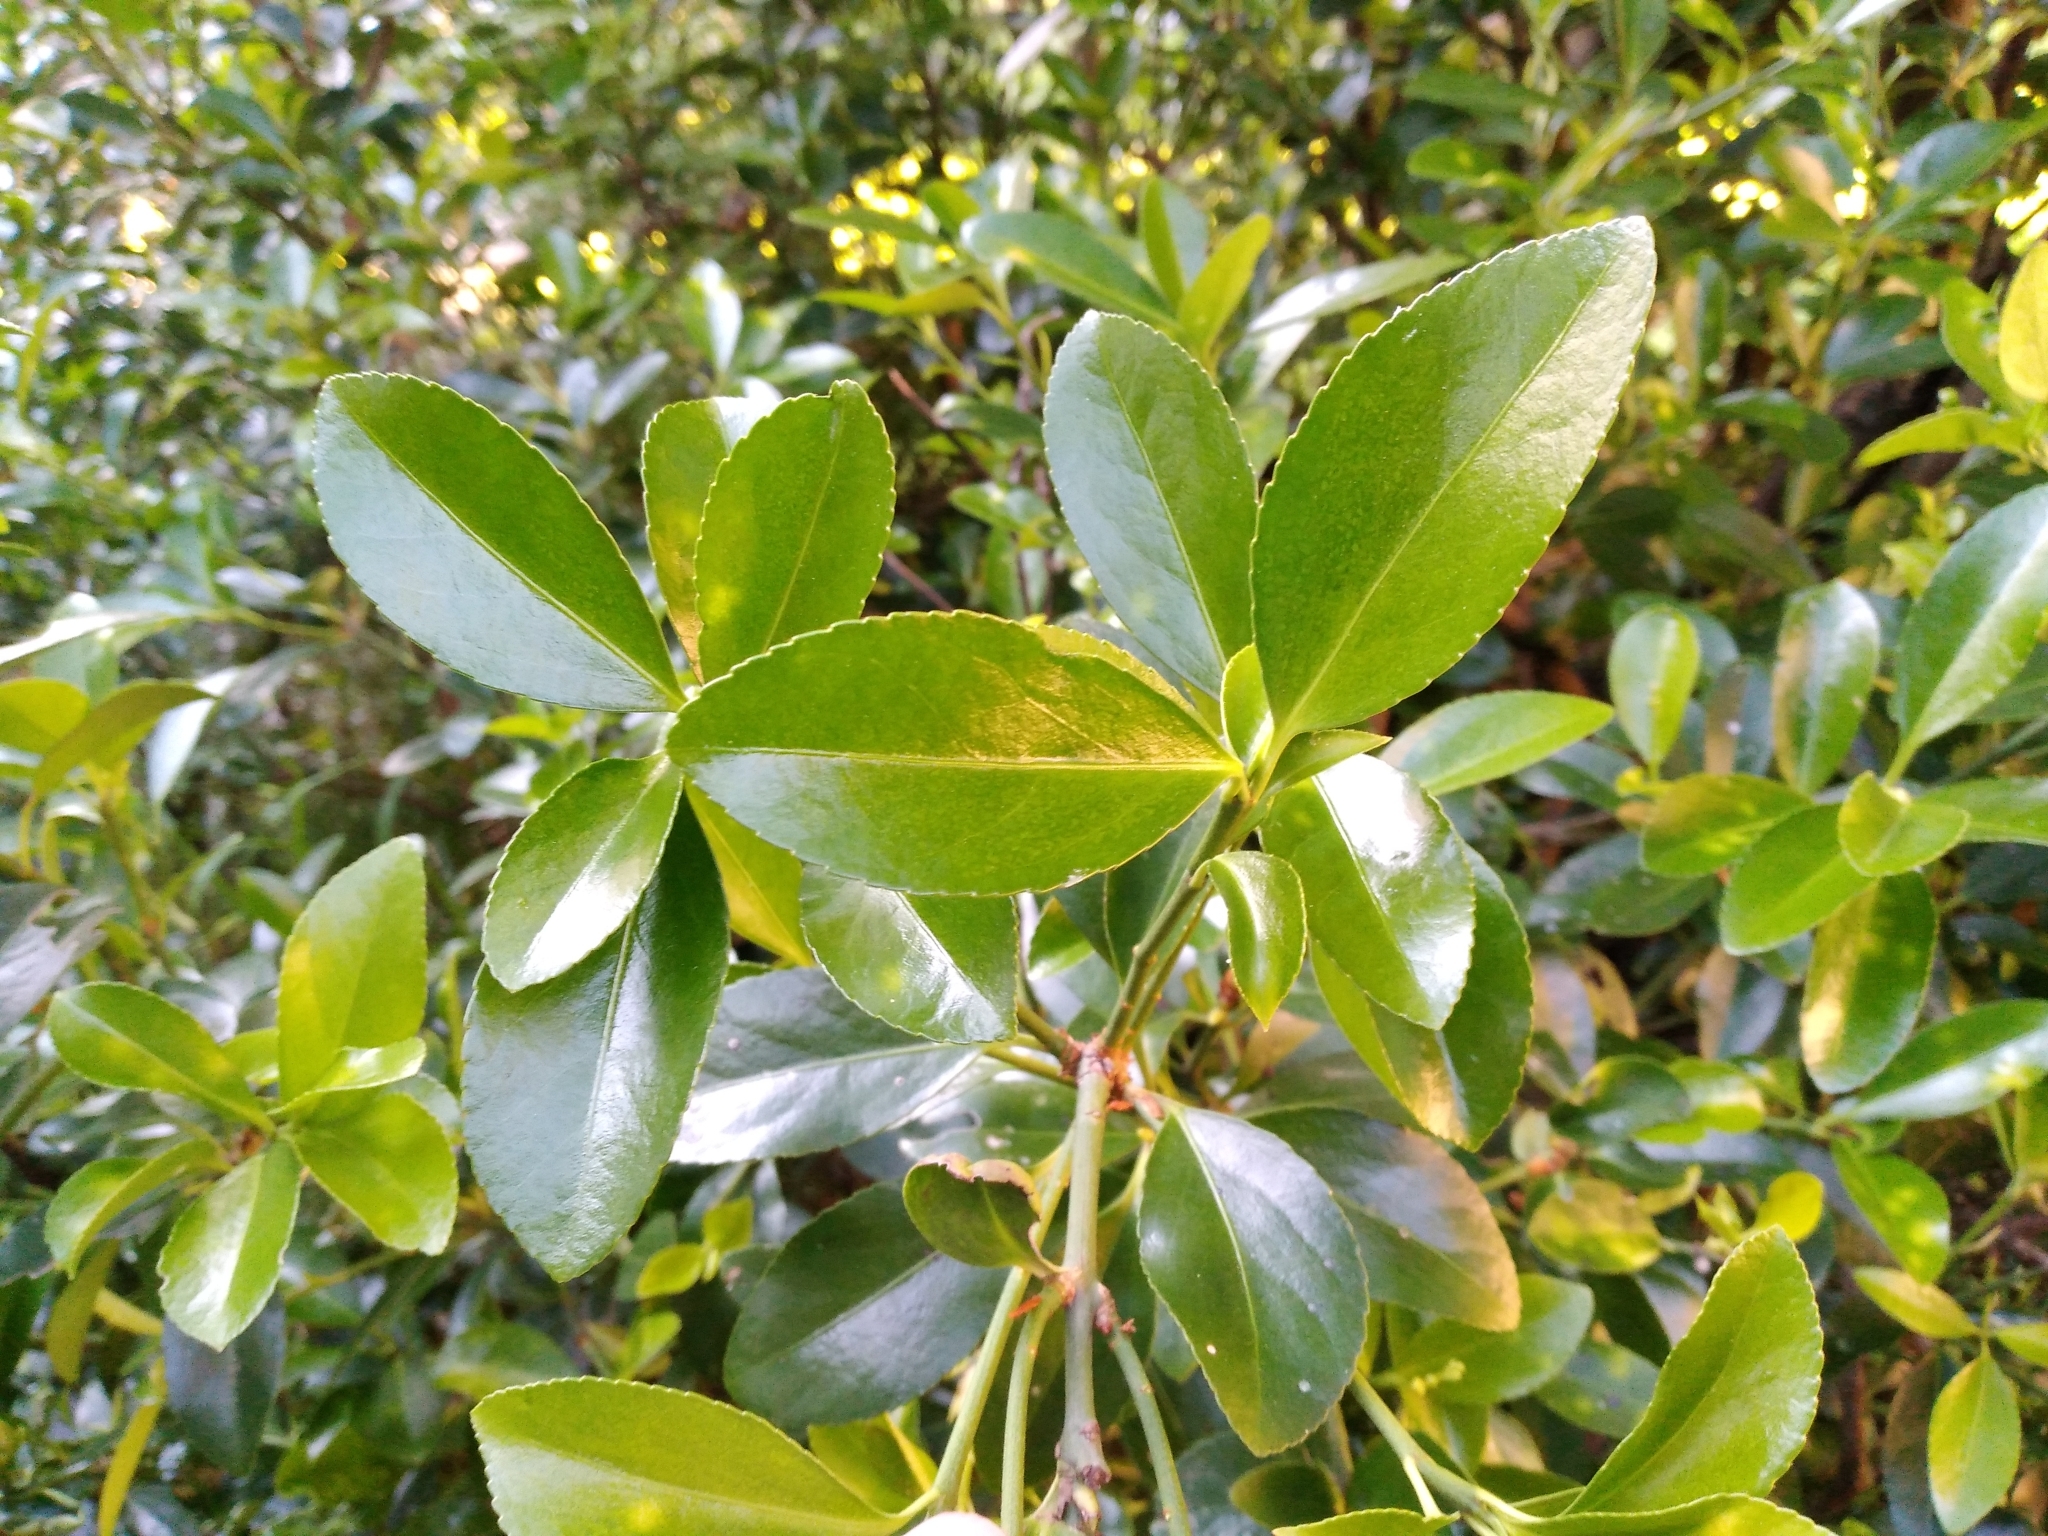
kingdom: Plantae
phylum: Tracheophyta
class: Magnoliopsida
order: Celastrales
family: Celastraceae
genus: Euonymus
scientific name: Euonymus japonicus
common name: Japanese spindletree
